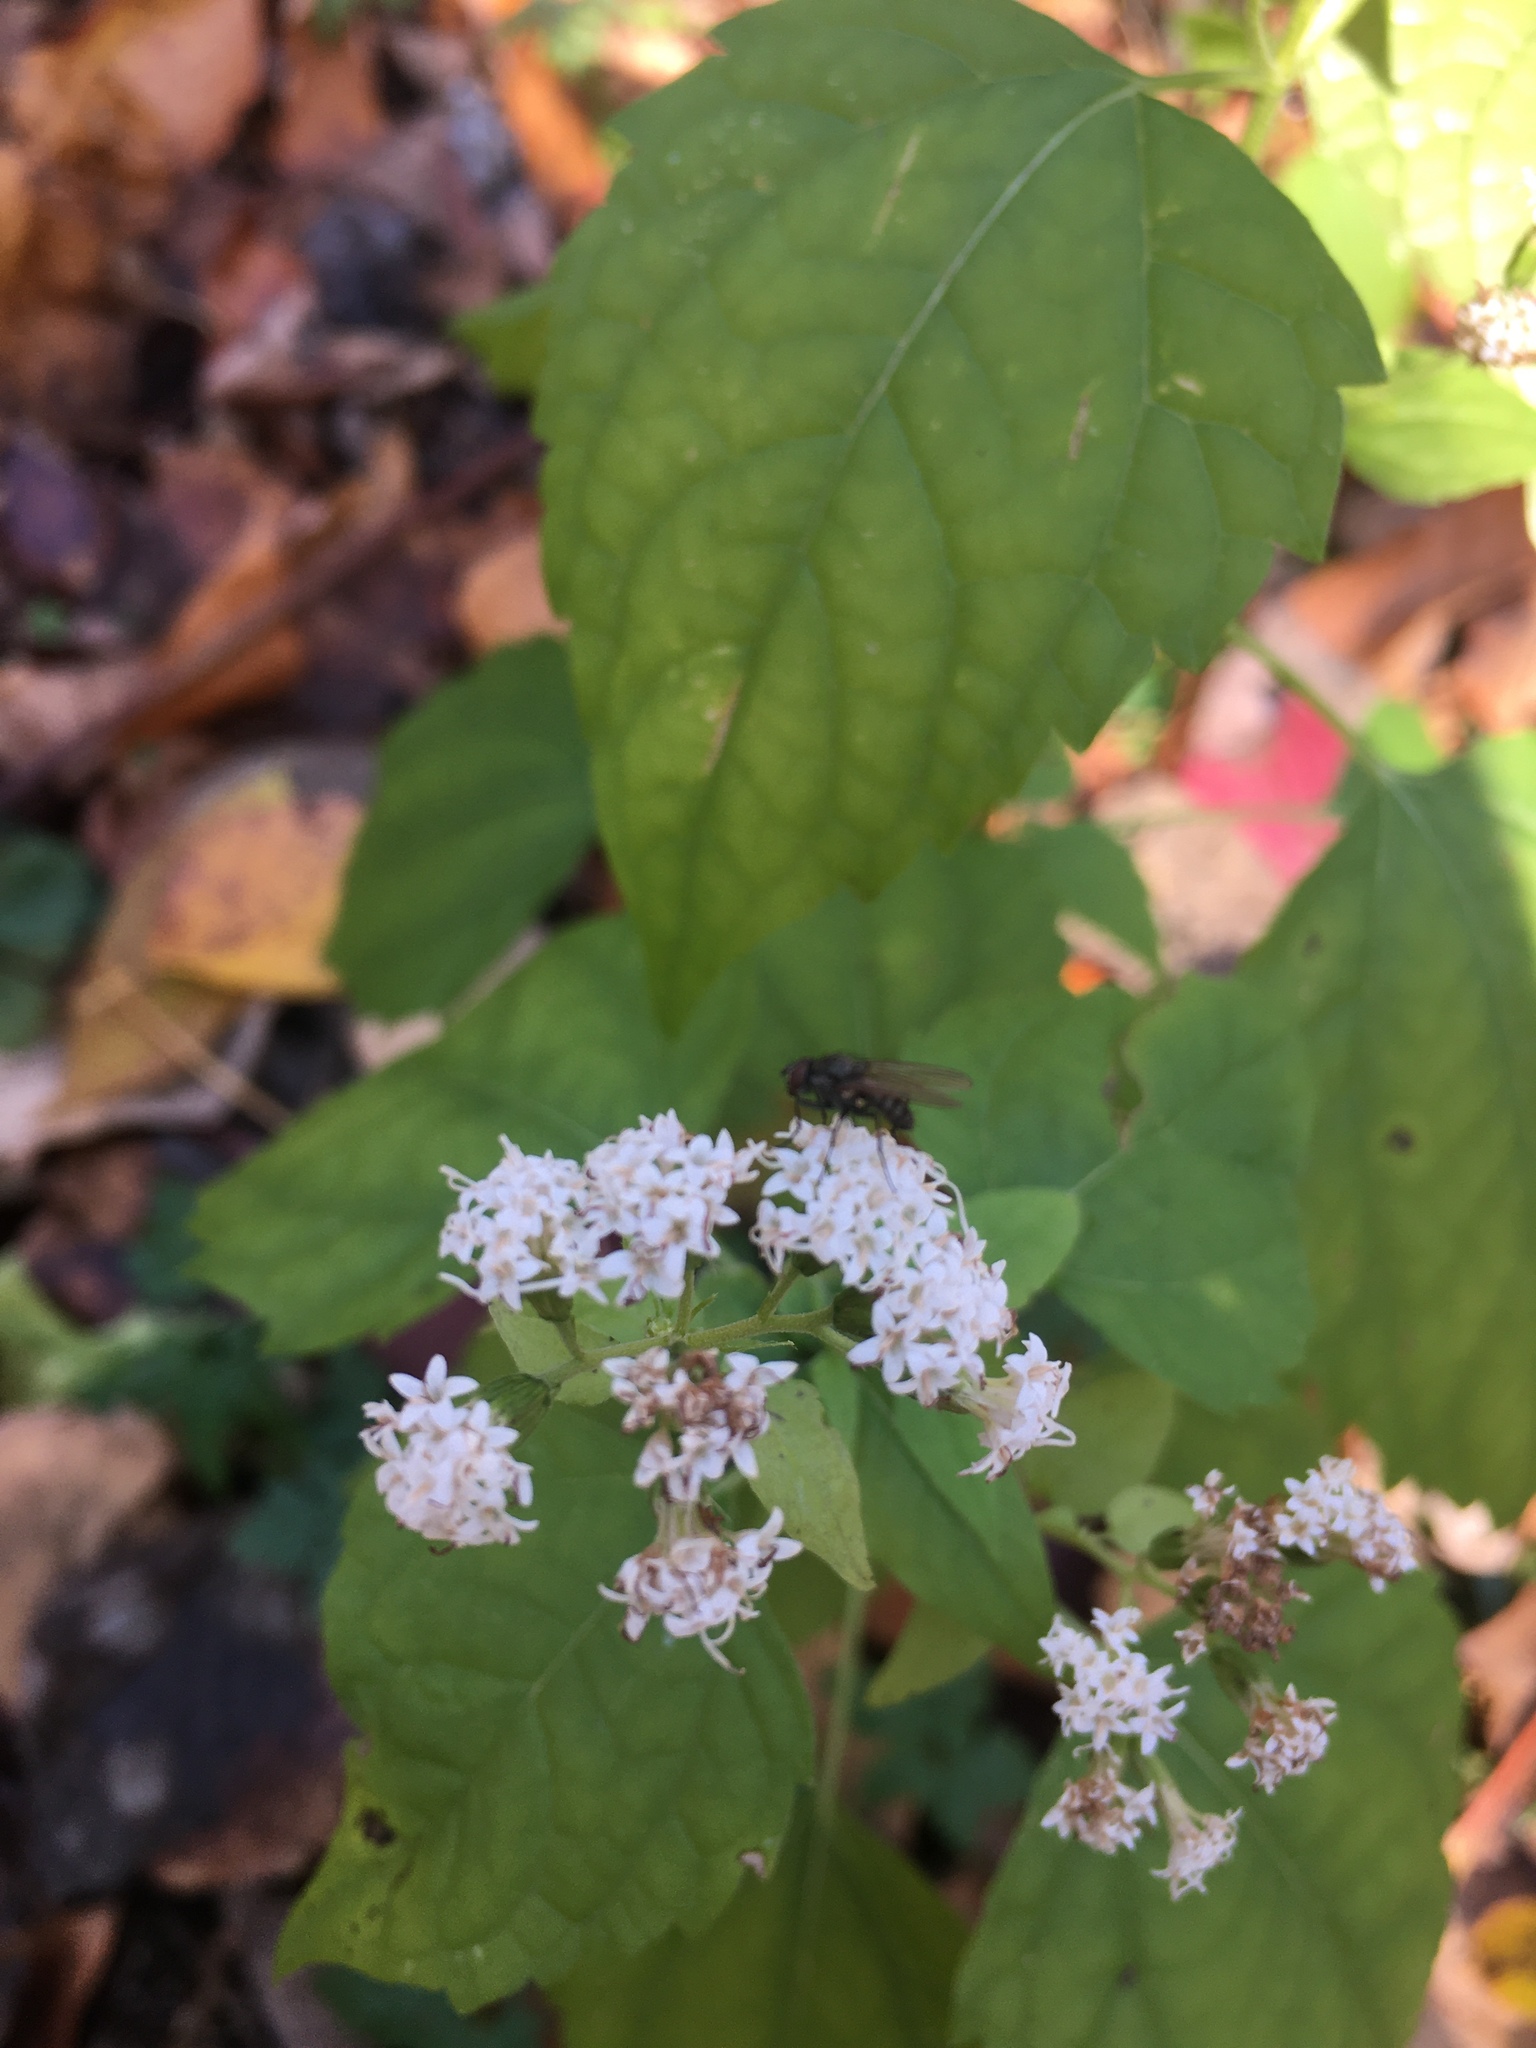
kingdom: Plantae
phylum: Tracheophyta
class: Magnoliopsida
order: Asterales
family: Asteraceae
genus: Ageratina
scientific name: Ageratina altissima
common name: White snakeroot
